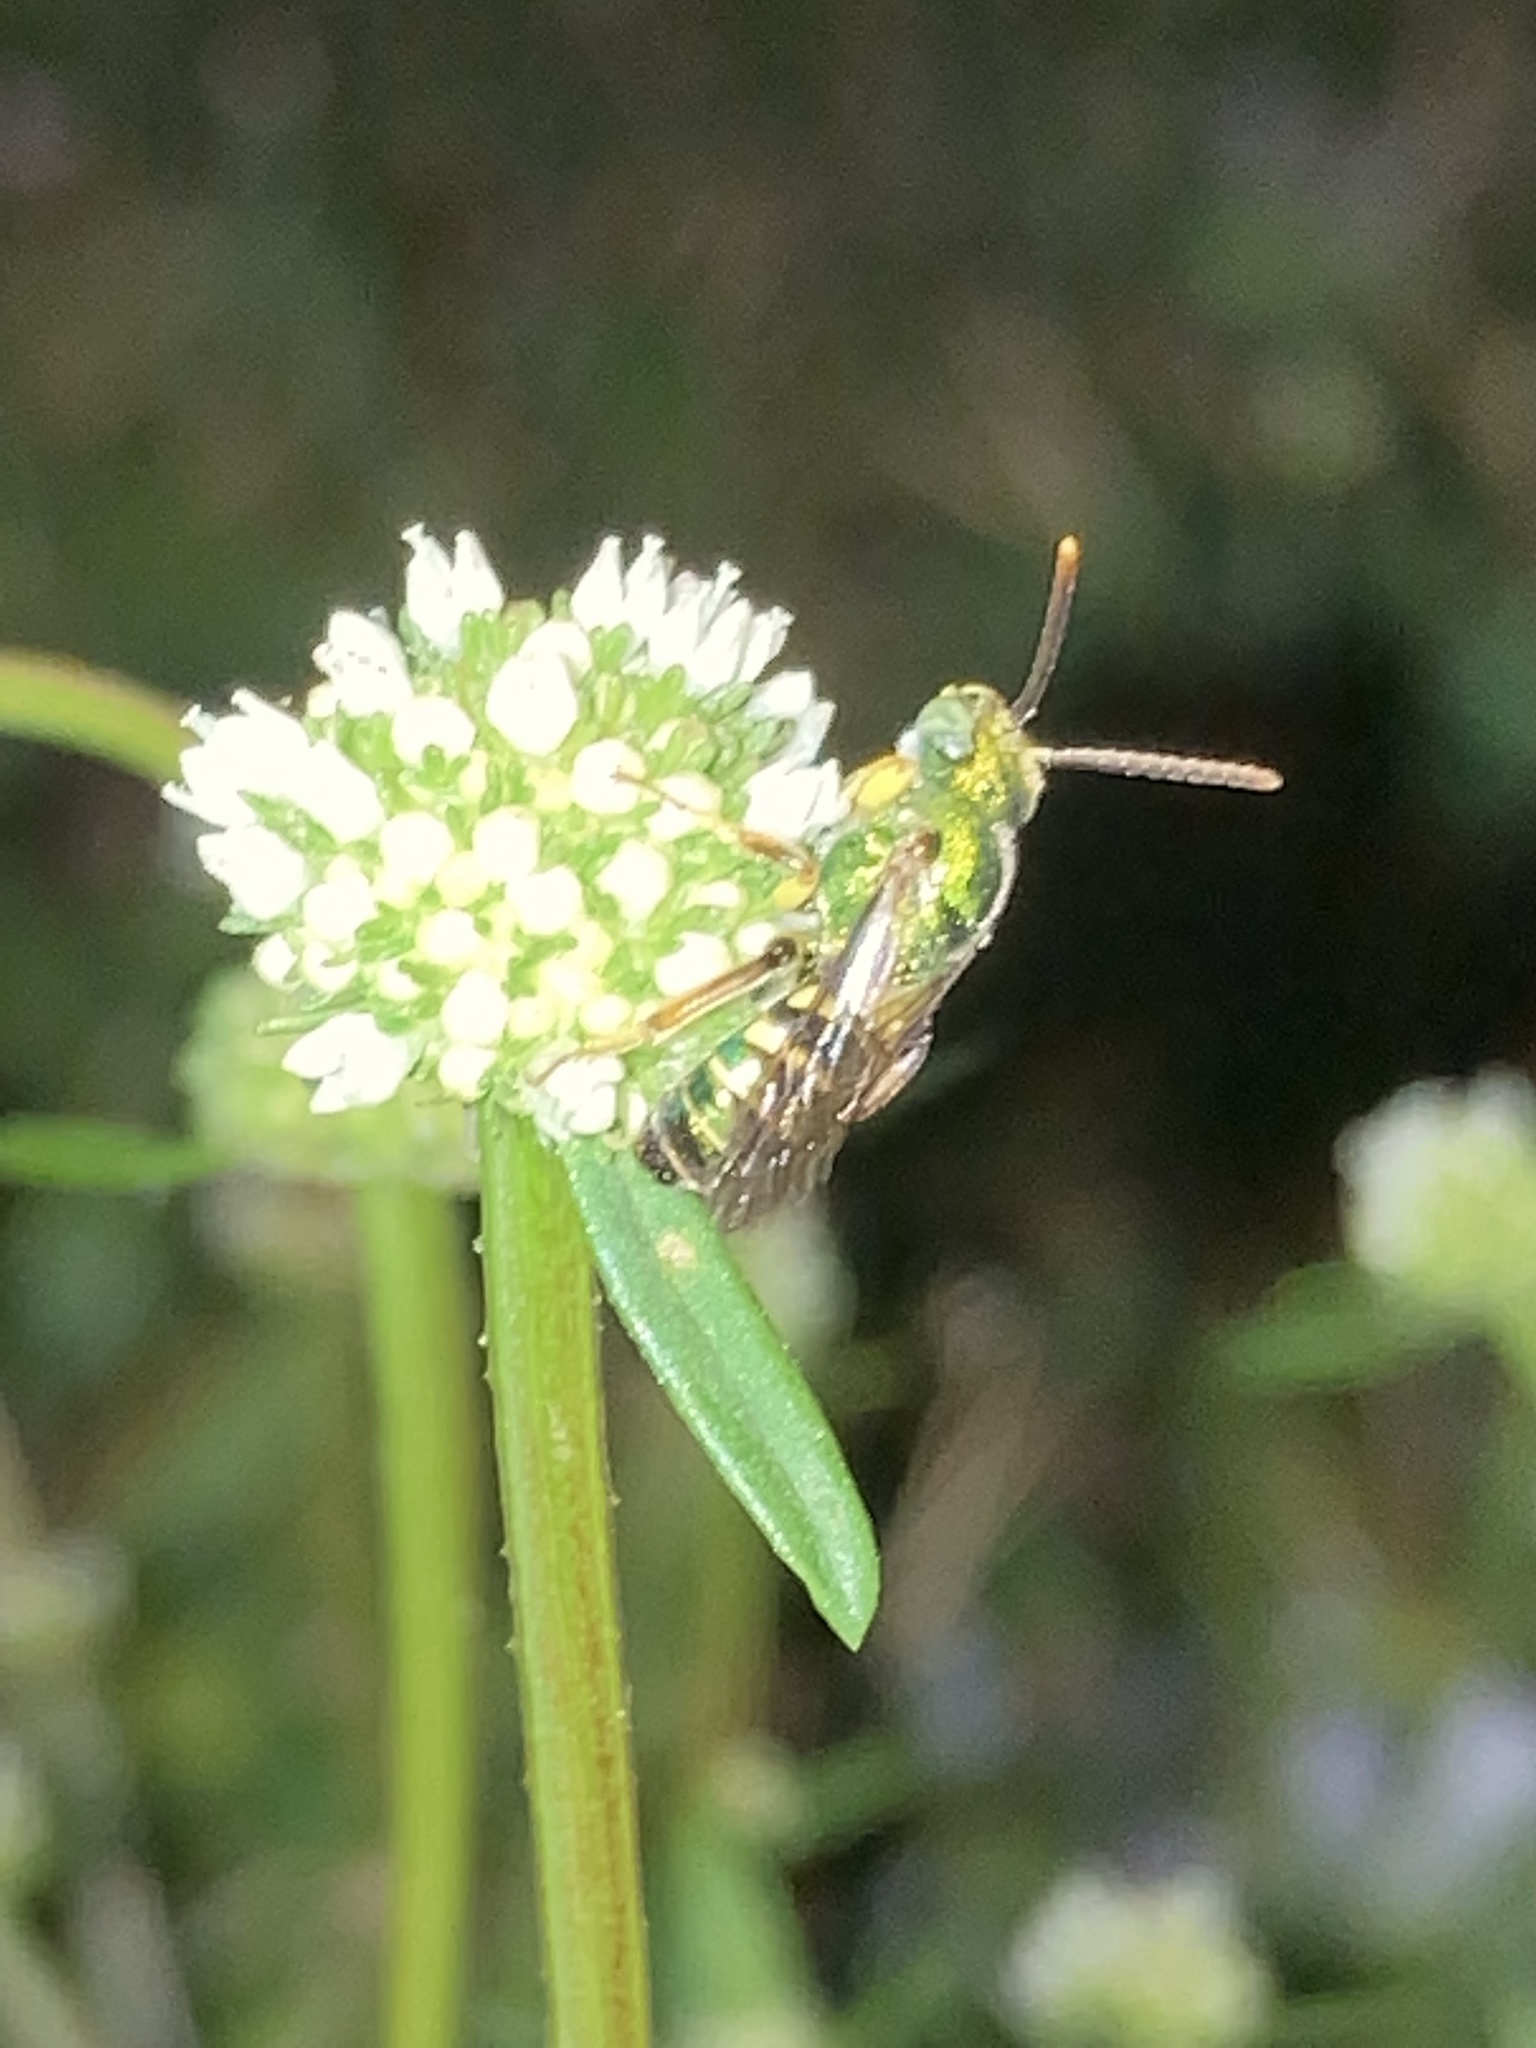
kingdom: Animalia
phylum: Arthropoda
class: Insecta
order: Hymenoptera
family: Halictidae
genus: Agapostemon
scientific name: Agapostemon poeyi
